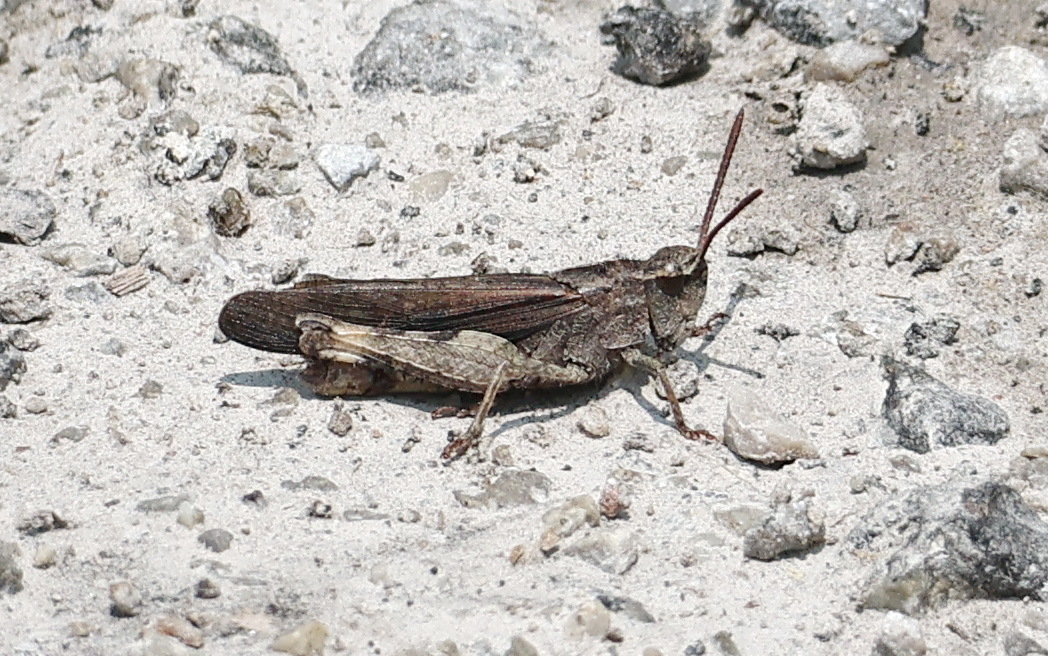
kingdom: Animalia
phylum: Arthropoda
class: Insecta
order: Orthoptera
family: Acrididae
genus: Chortophaga
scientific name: Chortophaga viridifasciata
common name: Green-striped grasshopper
